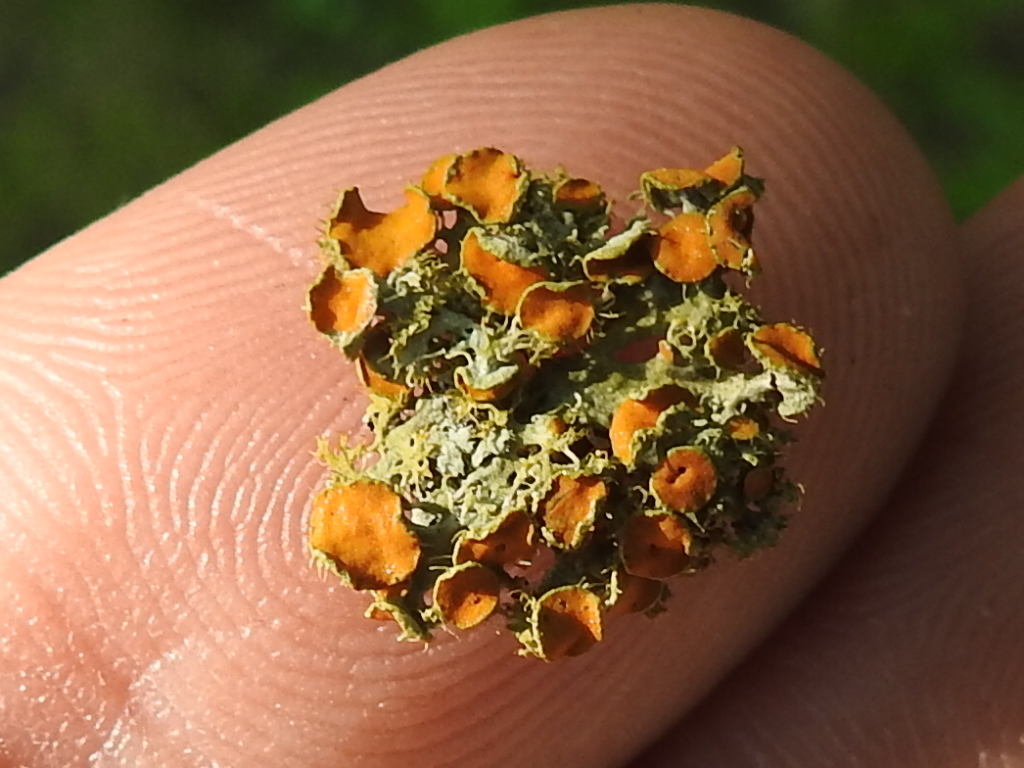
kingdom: Fungi
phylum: Ascomycota
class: Lecanoromycetes
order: Teloschistales
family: Teloschistaceae
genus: Niorma
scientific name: Niorma chrysophthalma
